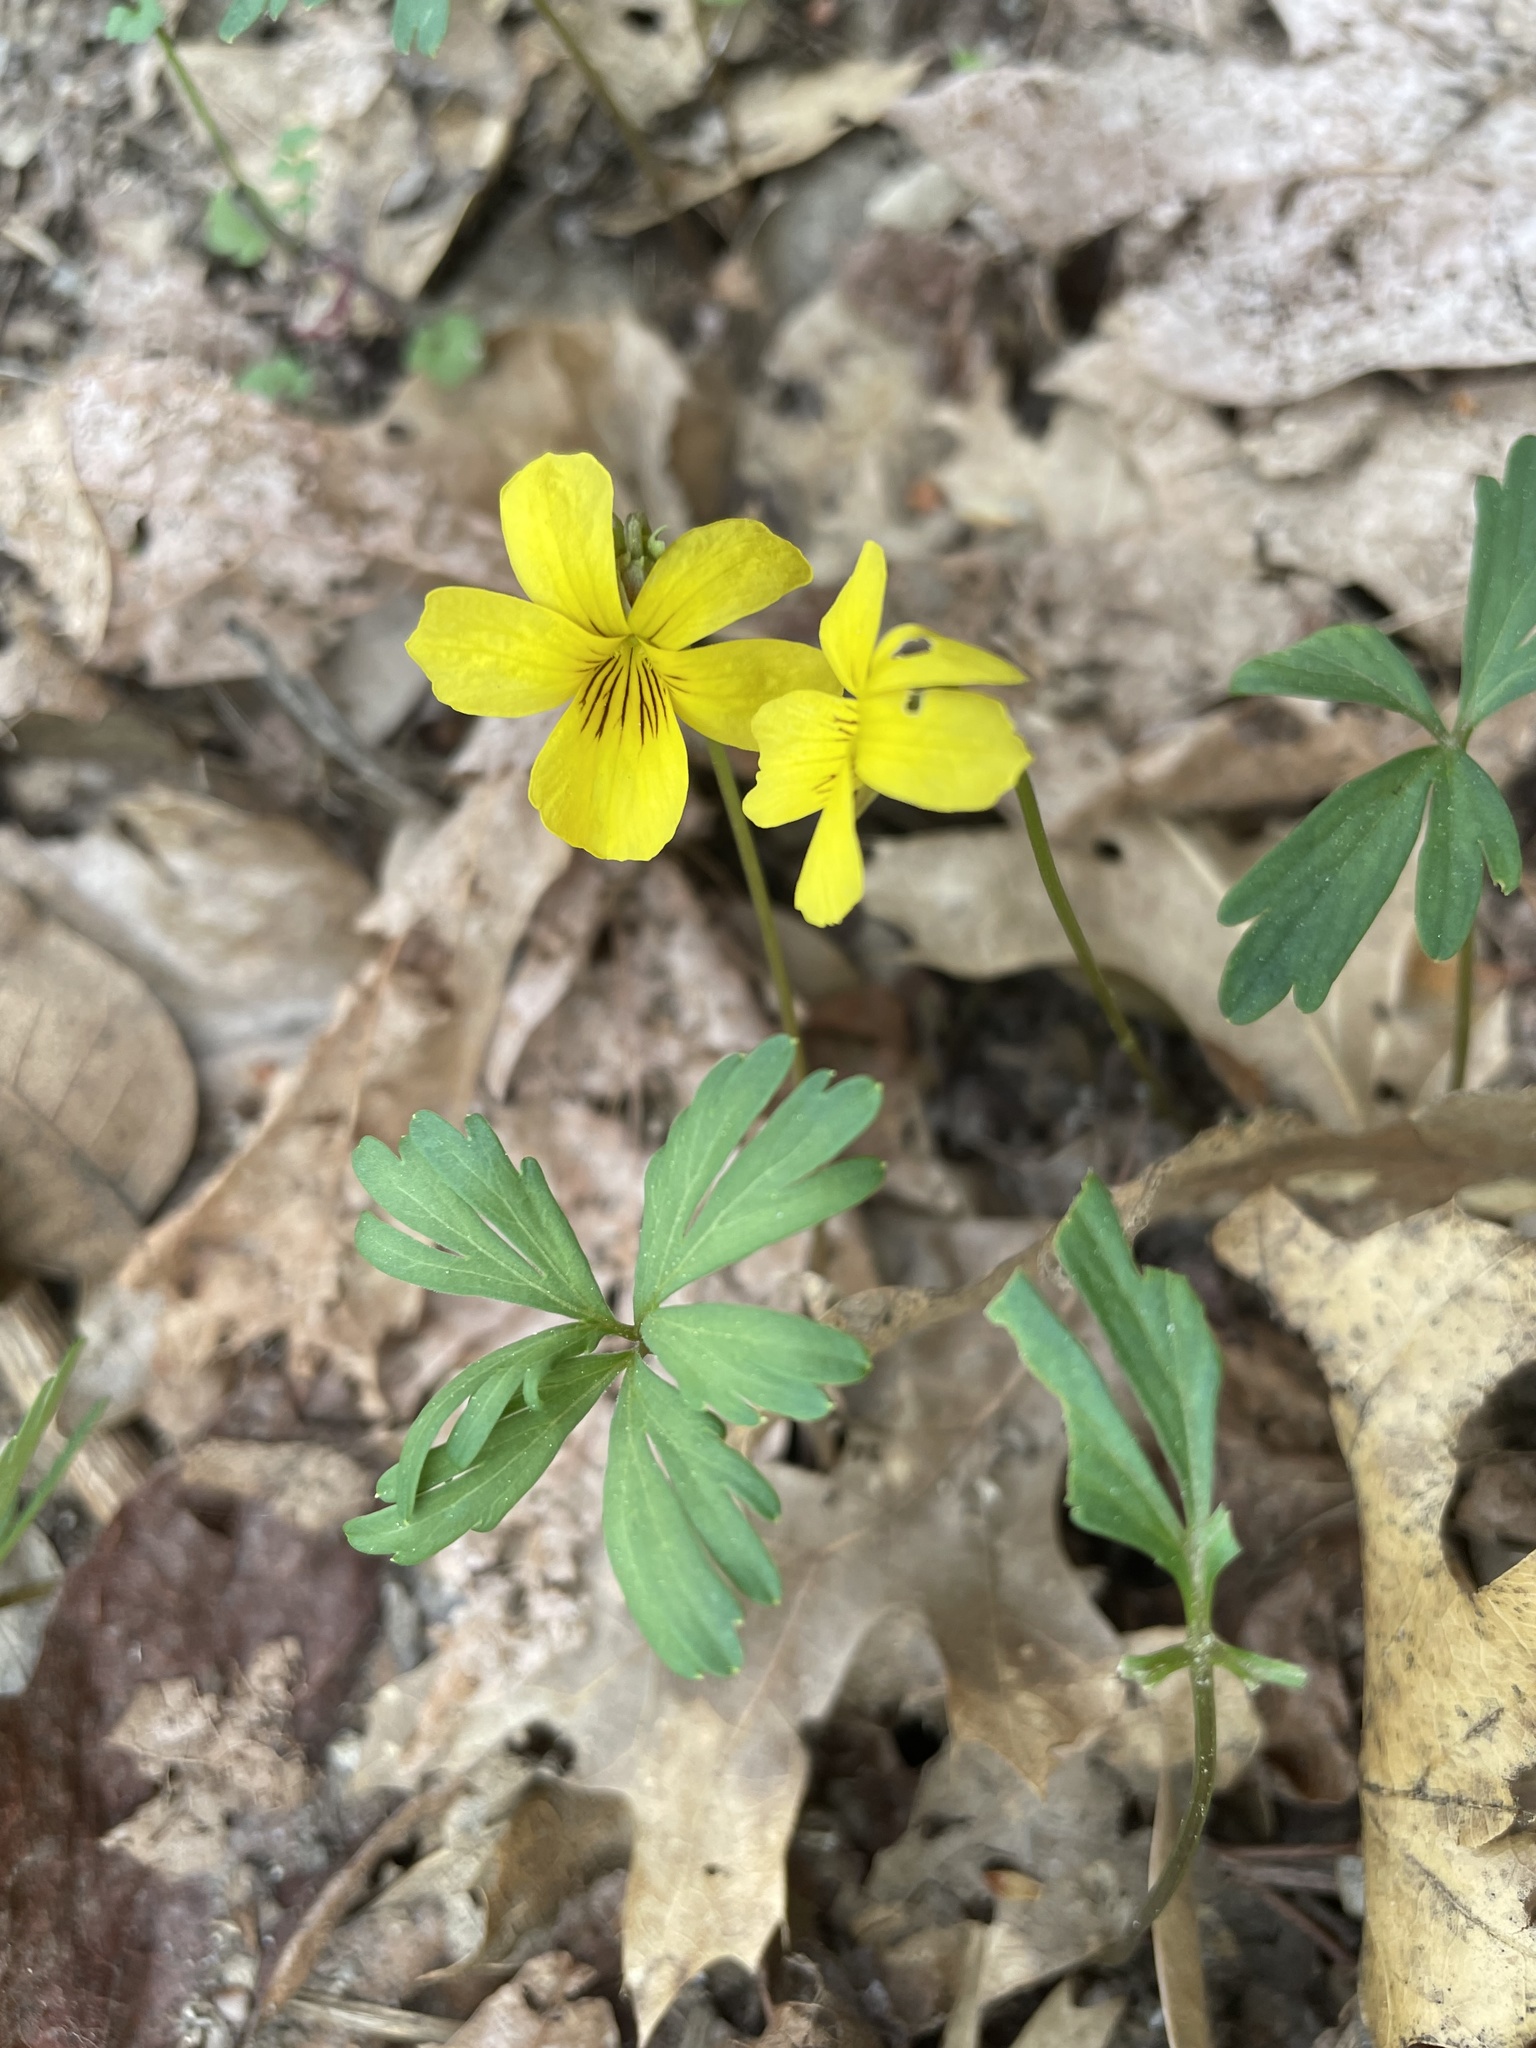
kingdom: Plantae
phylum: Tracheophyta
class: Magnoliopsida
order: Malpighiales
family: Violaceae
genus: Viola
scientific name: Viola sheltonii
